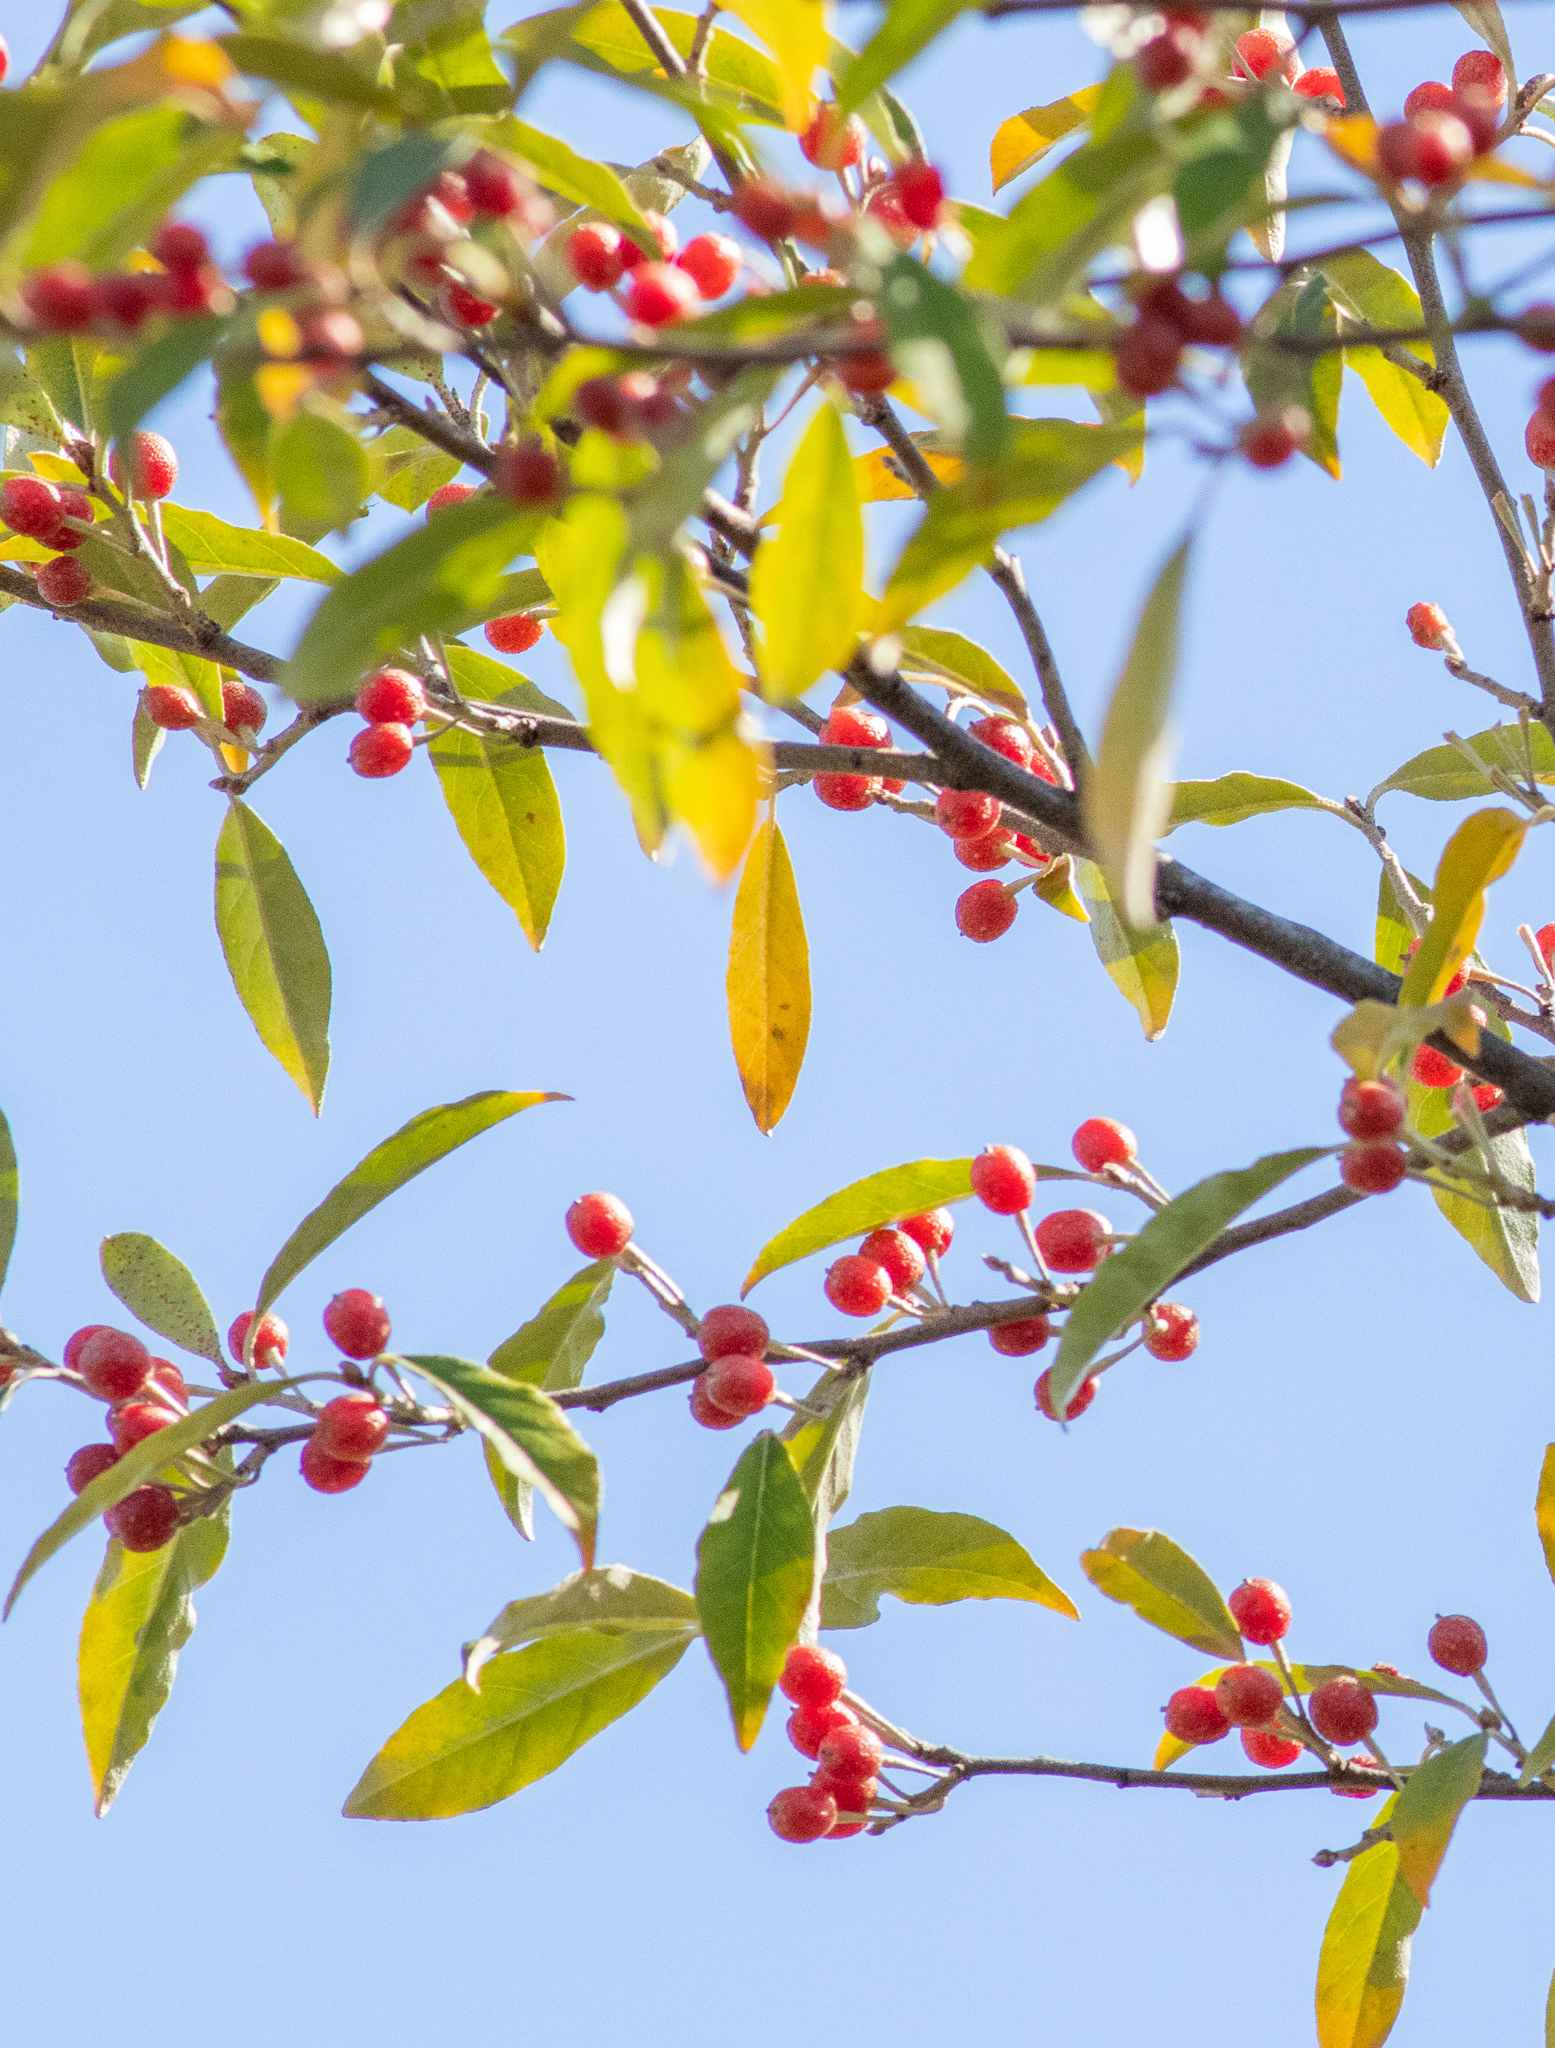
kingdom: Plantae
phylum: Tracheophyta
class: Magnoliopsida
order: Rosales
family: Elaeagnaceae
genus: Elaeagnus
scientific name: Elaeagnus umbellata
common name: Autumn olive
